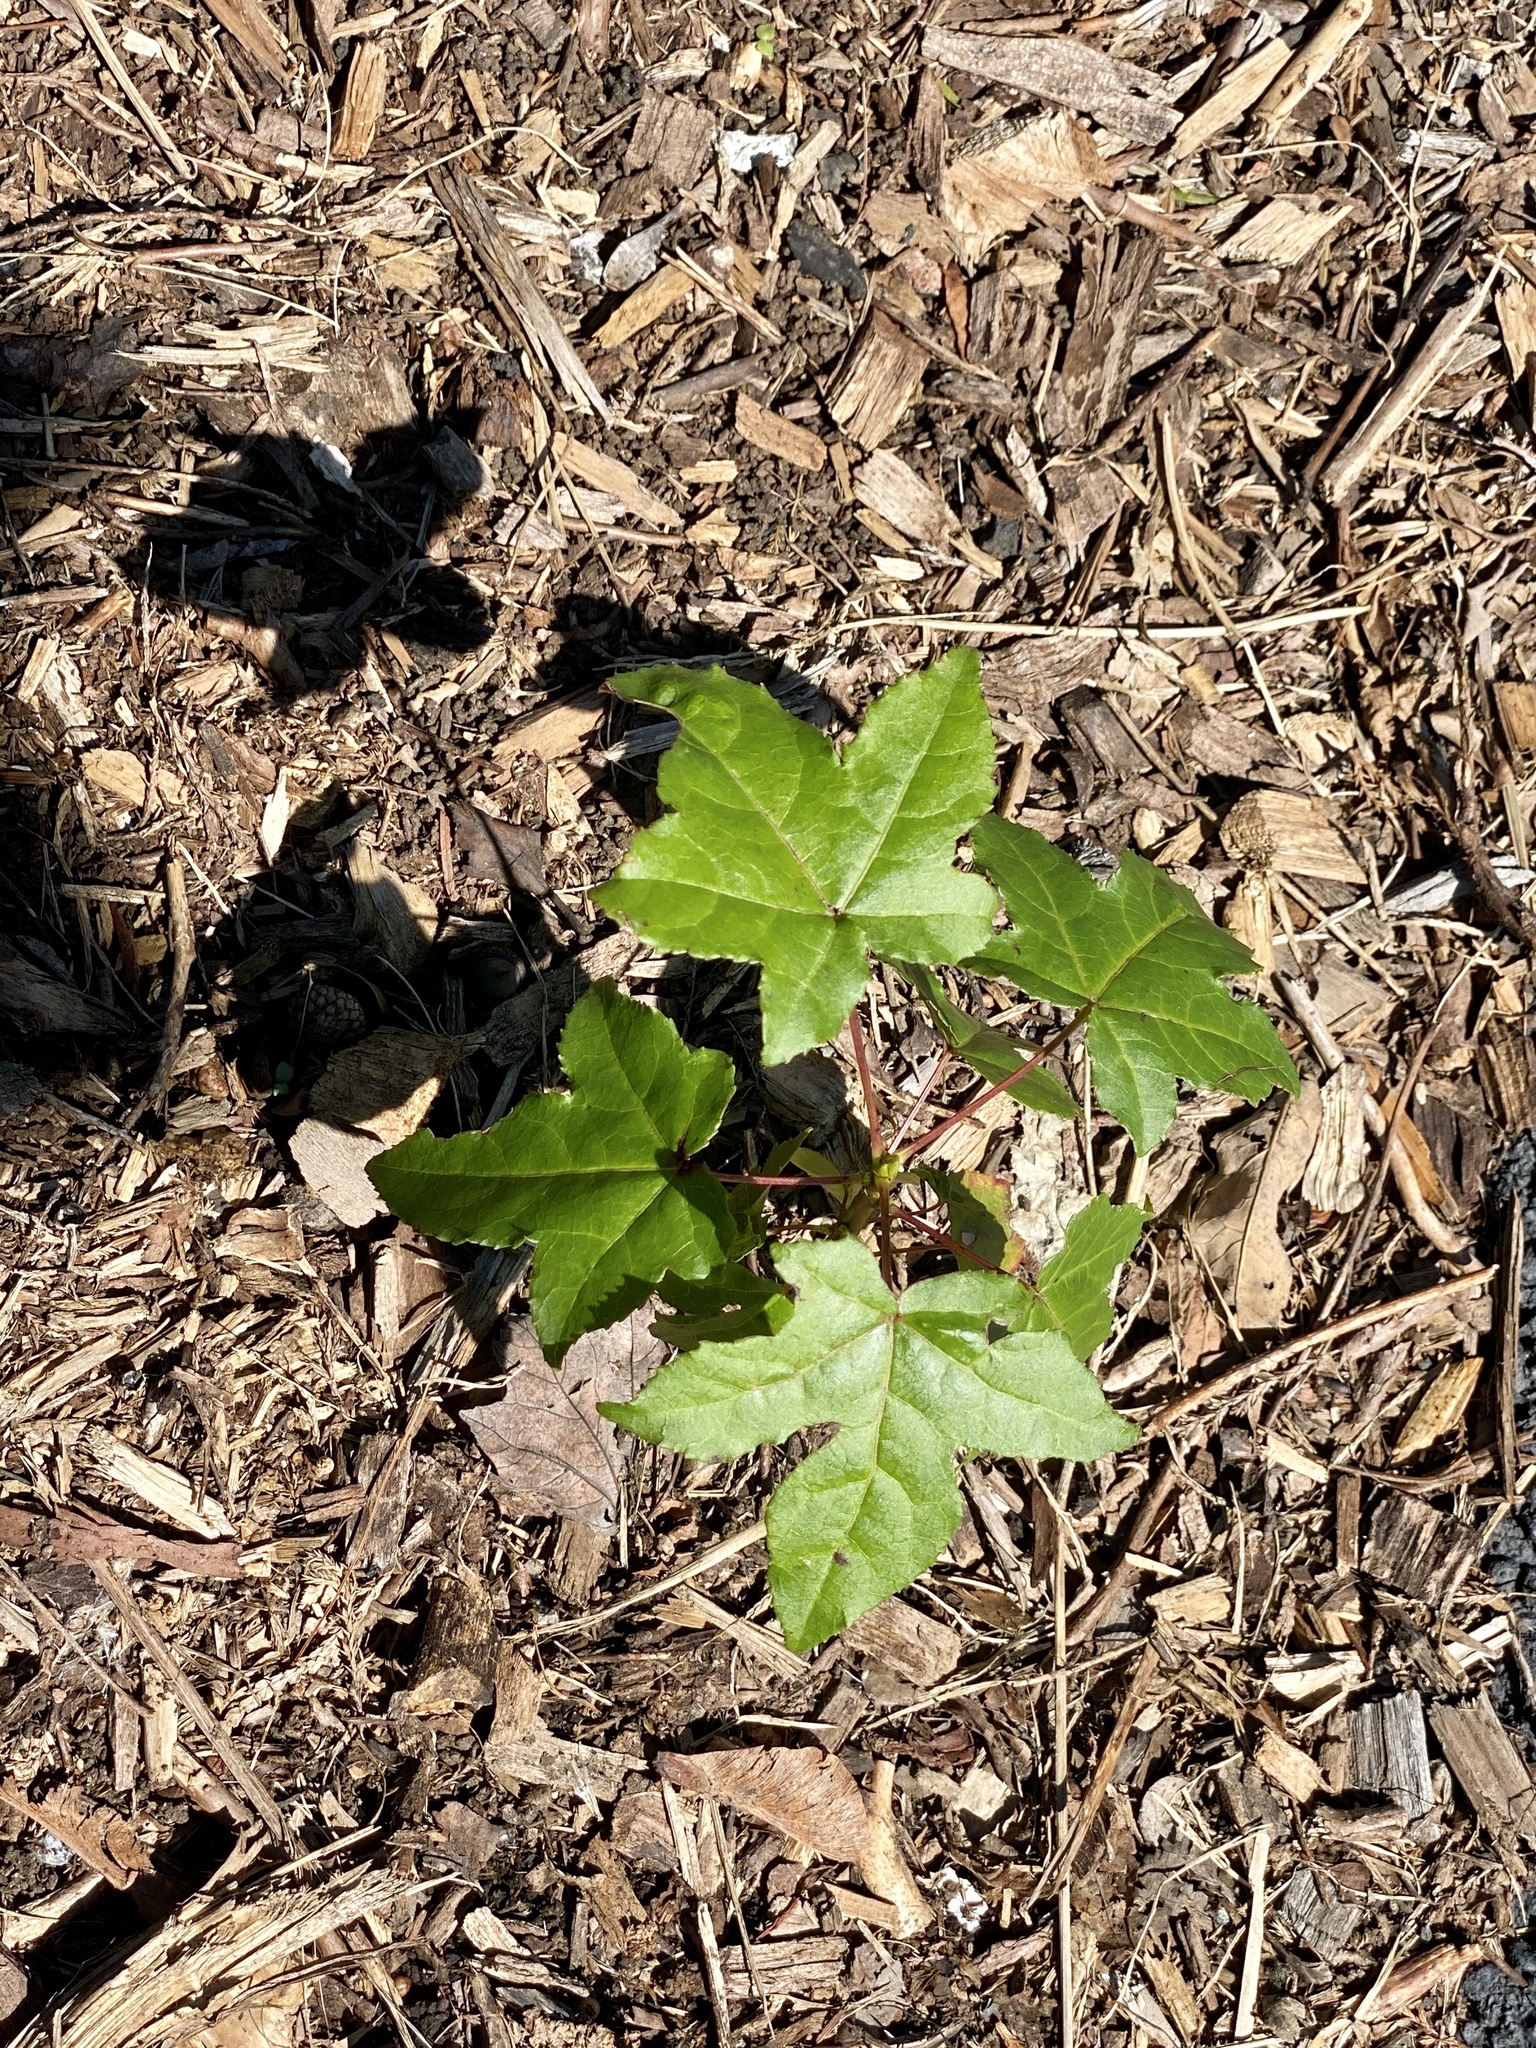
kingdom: Plantae
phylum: Tracheophyta
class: Magnoliopsida
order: Saxifragales
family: Altingiaceae
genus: Liquidambar
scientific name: Liquidambar styraciflua
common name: Sweet gum
